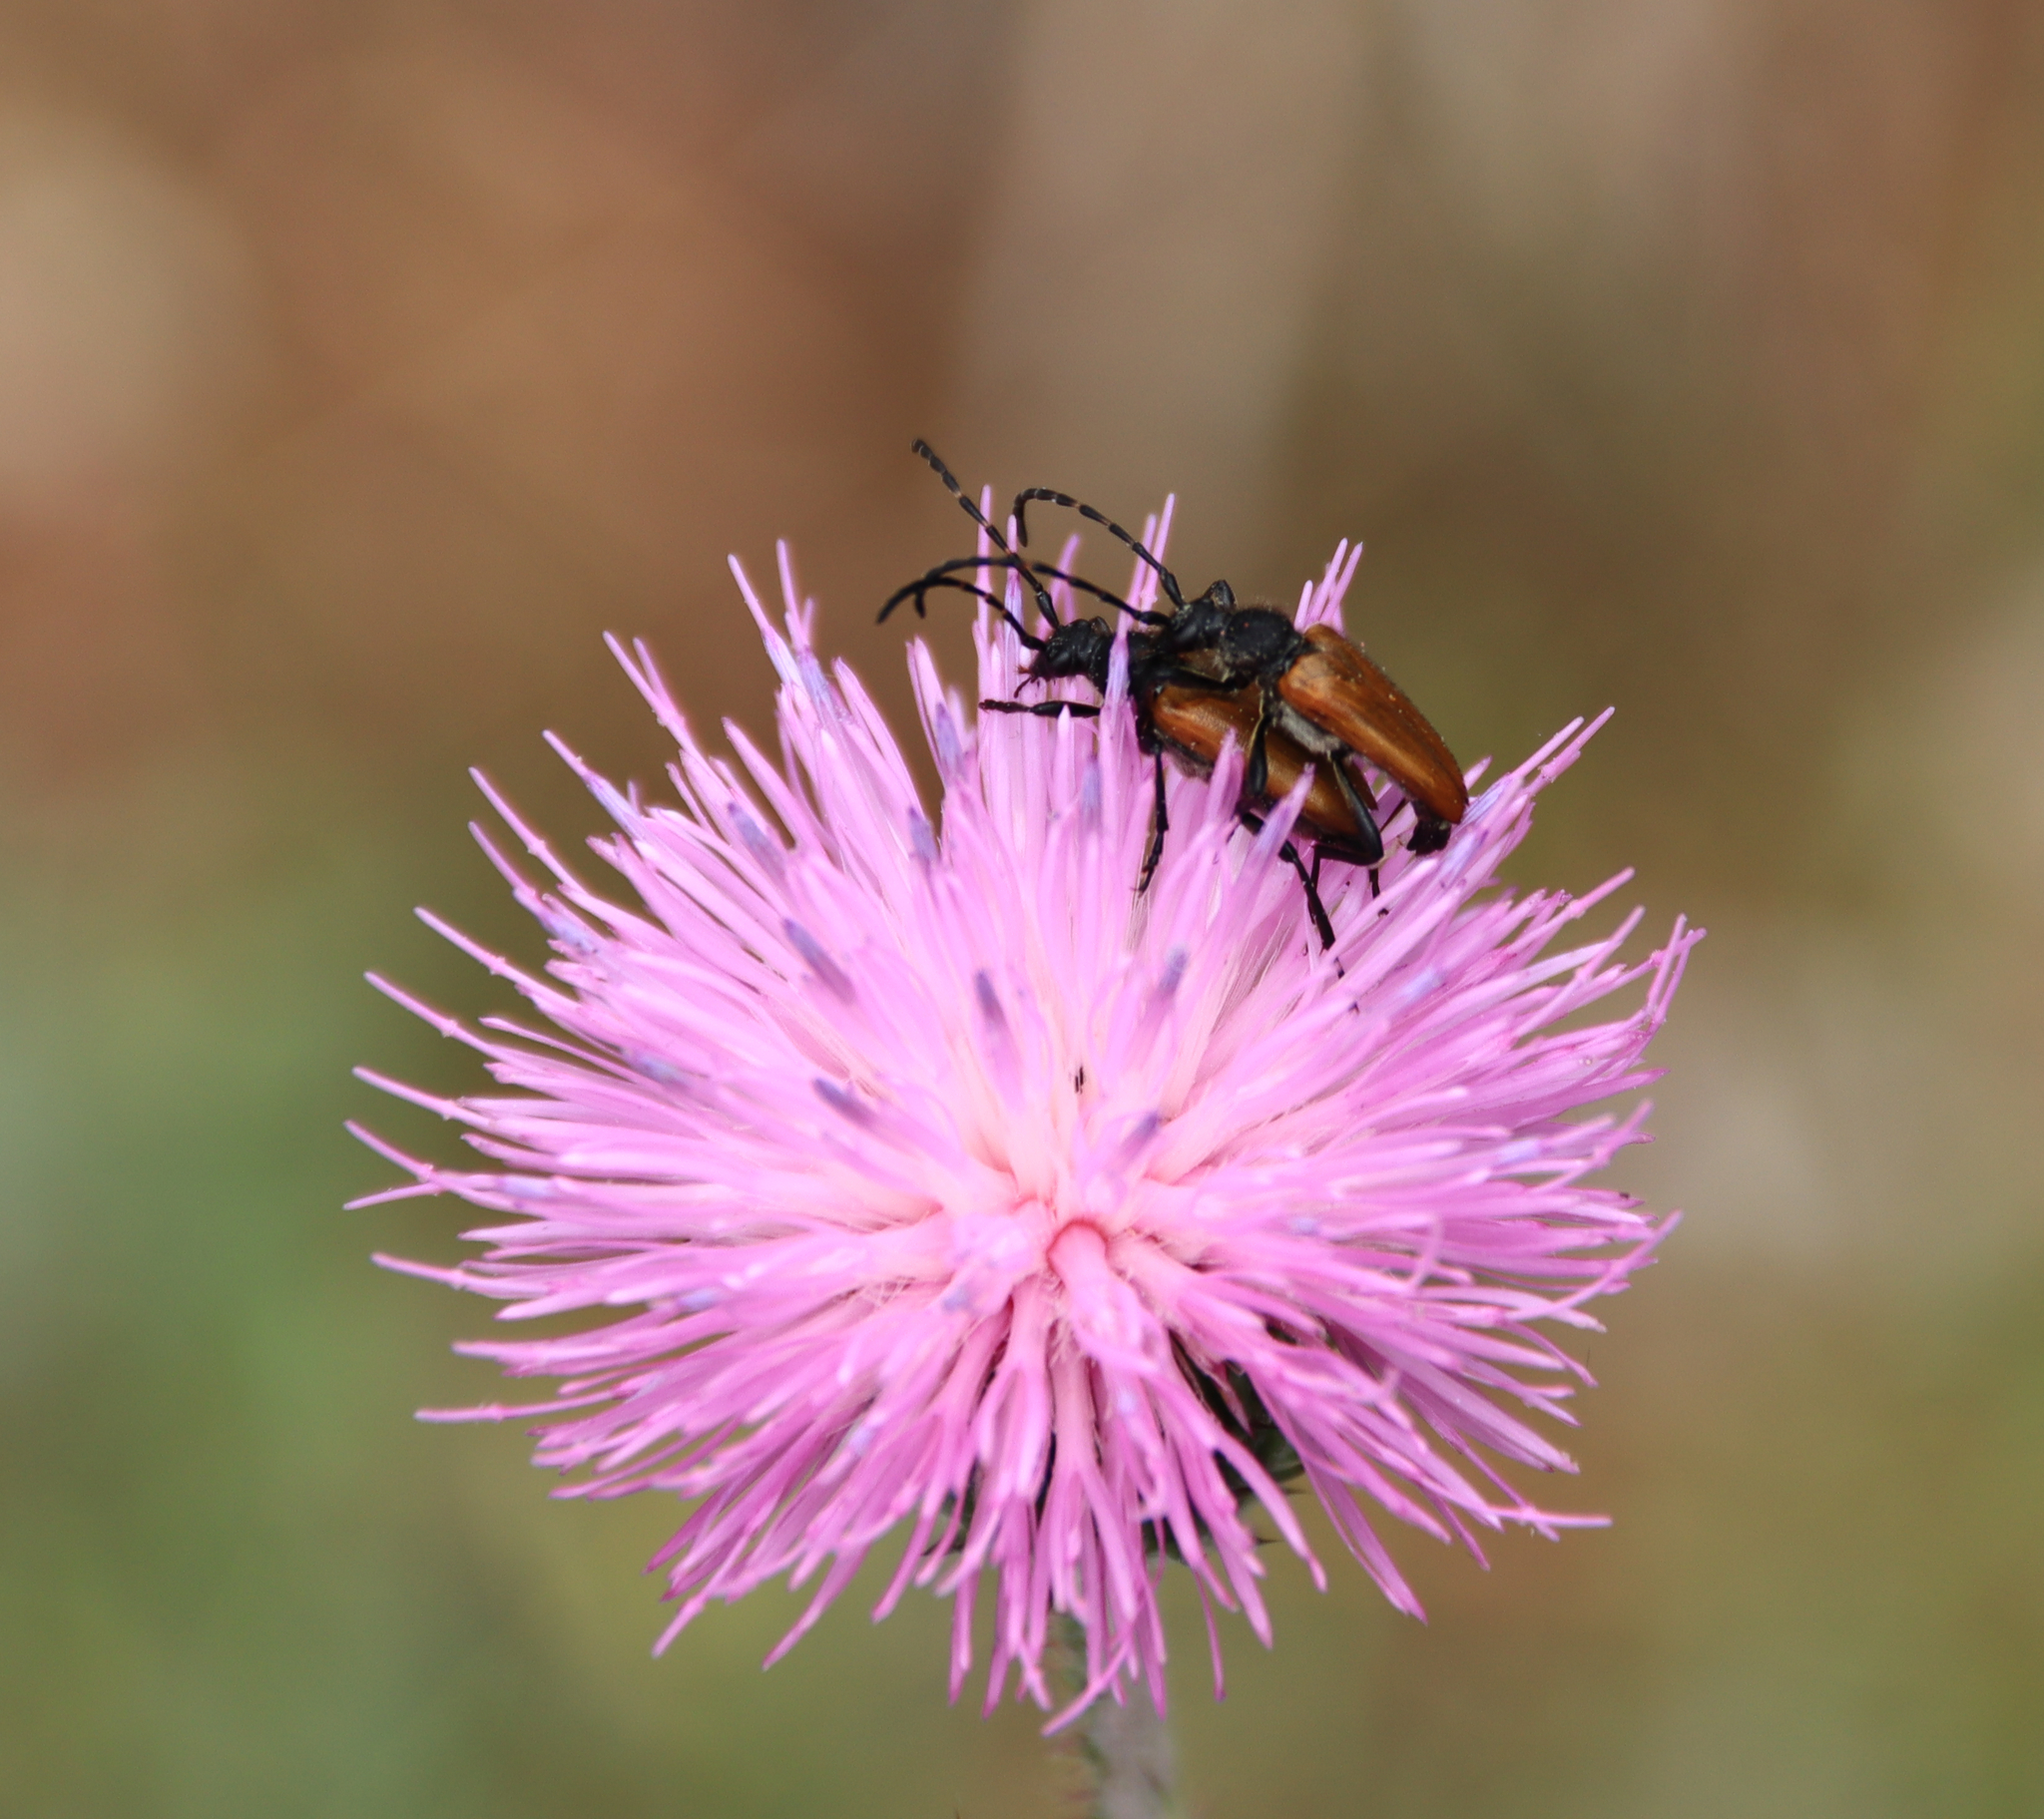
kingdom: Animalia
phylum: Arthropoda
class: Insecta
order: Coleoptera
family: Cerambycidae
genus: Paracorymbia
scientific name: Paracorymbia hybrida
